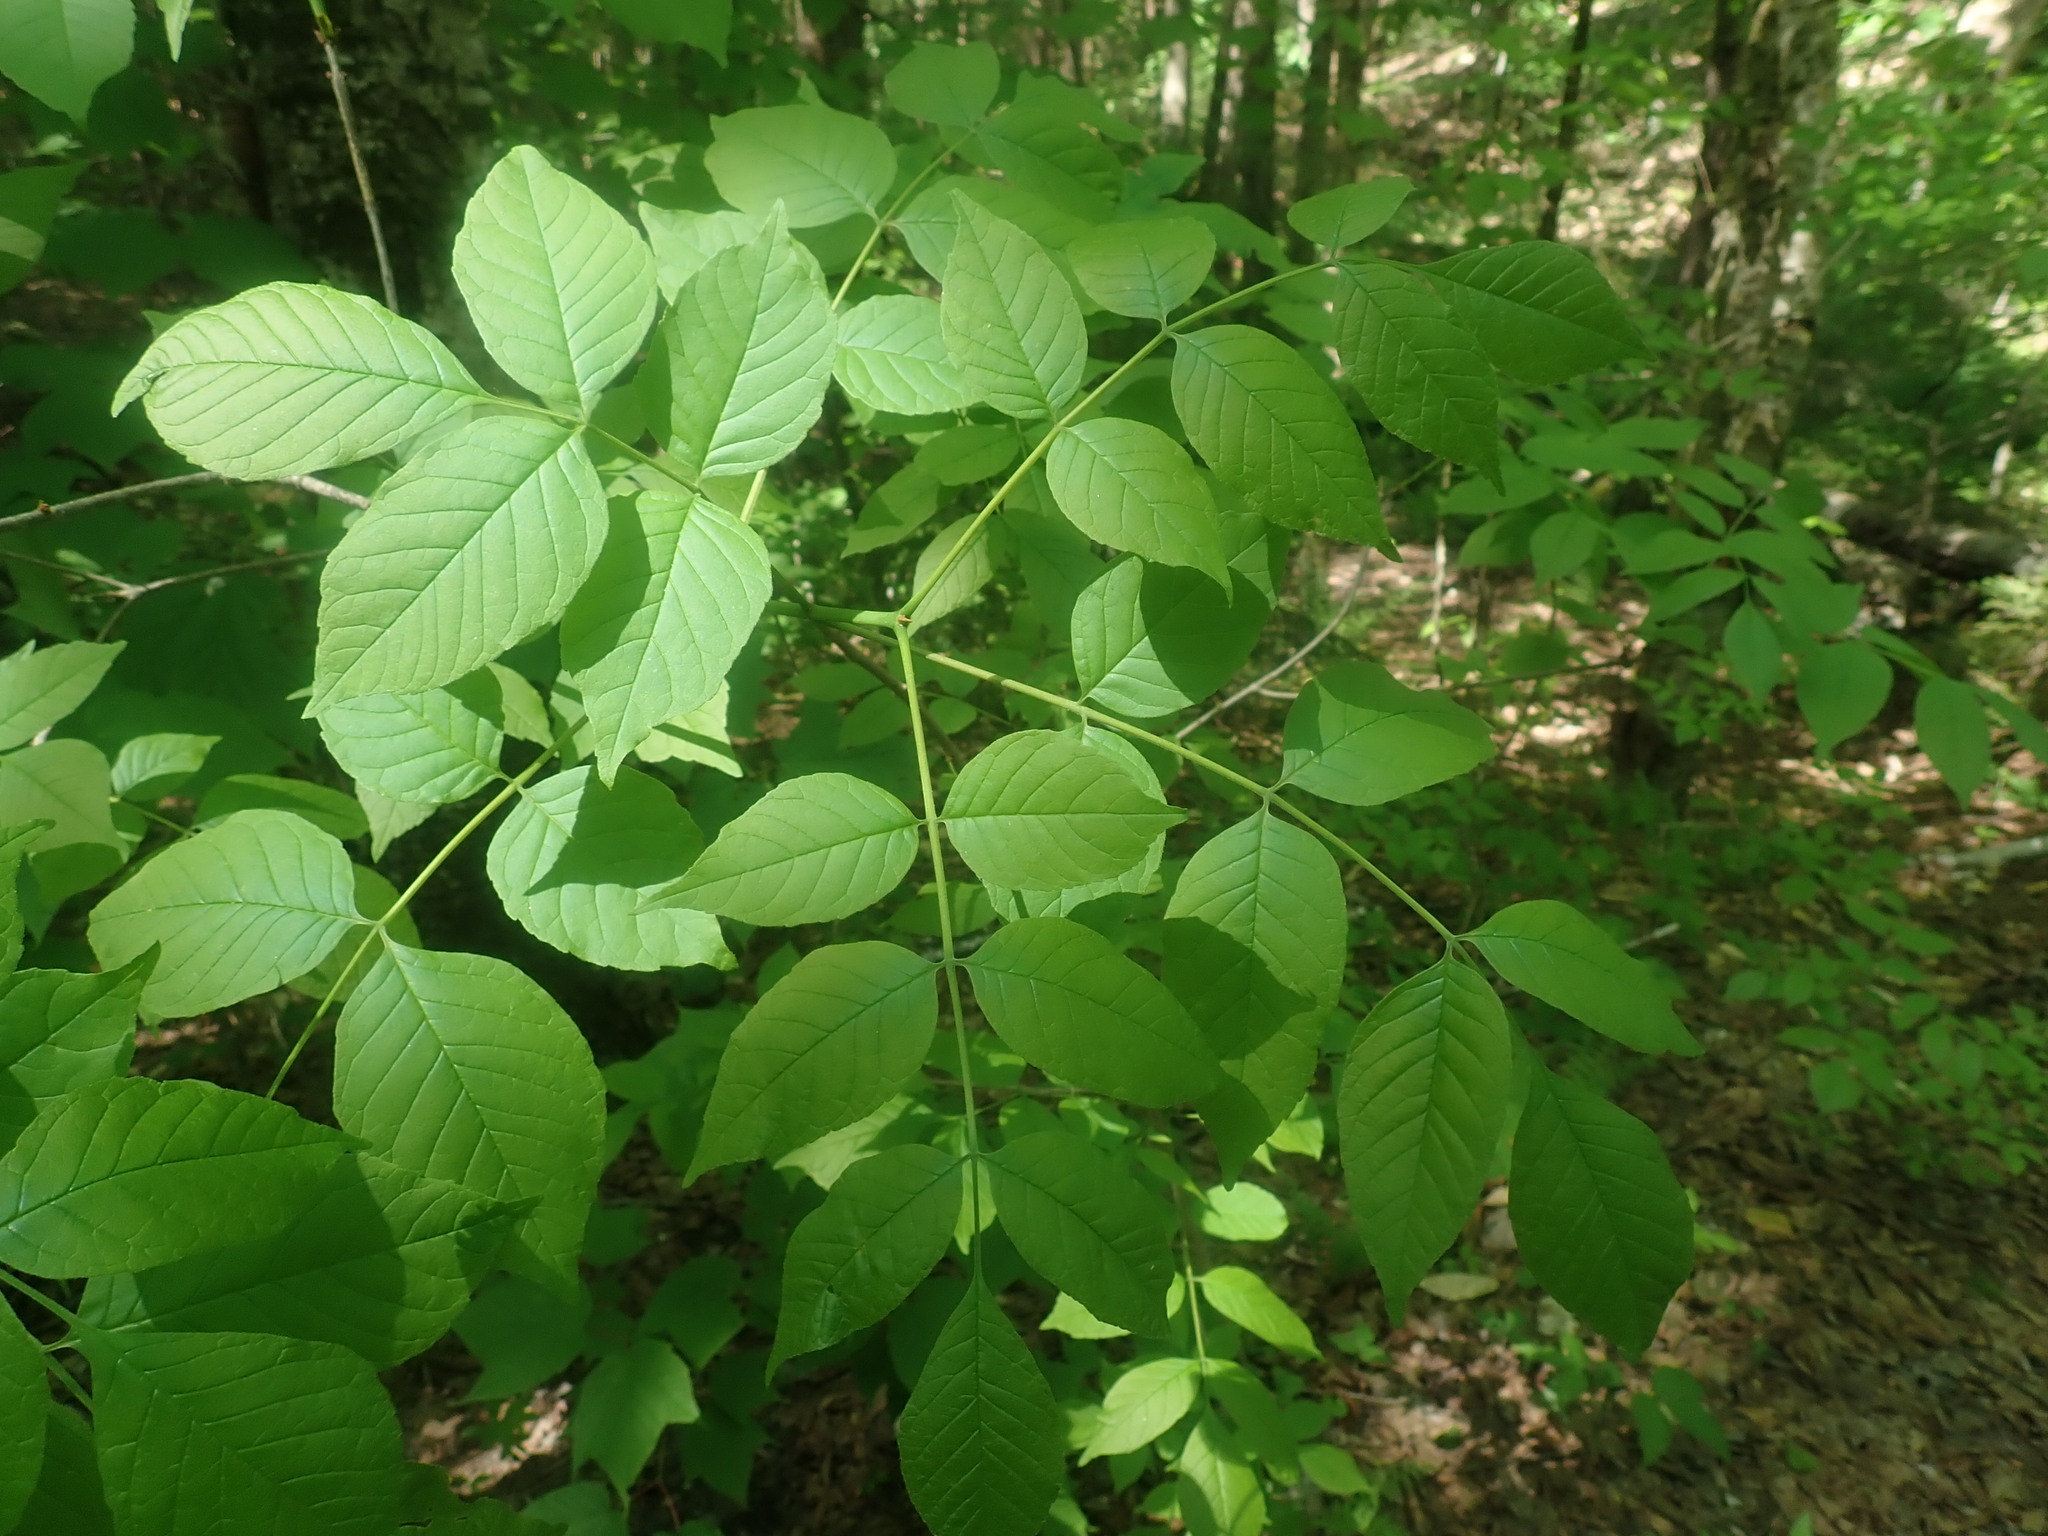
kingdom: Plantae
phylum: Tracheophyta
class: Magnoliopsida
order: Lamiales
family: Oleaceae
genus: Fraxinus
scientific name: Fraxinus
